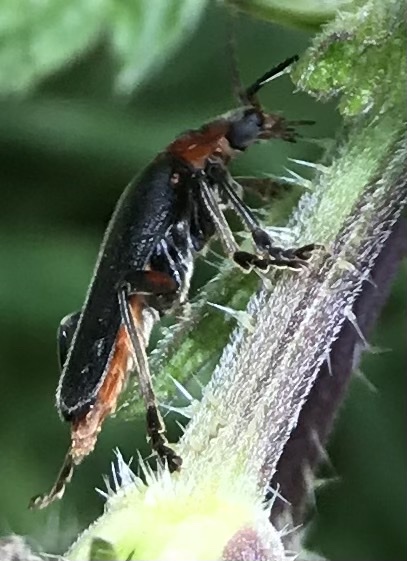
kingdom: Animalia
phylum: Arthropoda
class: Insecta
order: Coleoptera
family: Cantharidae
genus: Cantharis
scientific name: Cantharis rustica
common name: Soldier beetle
